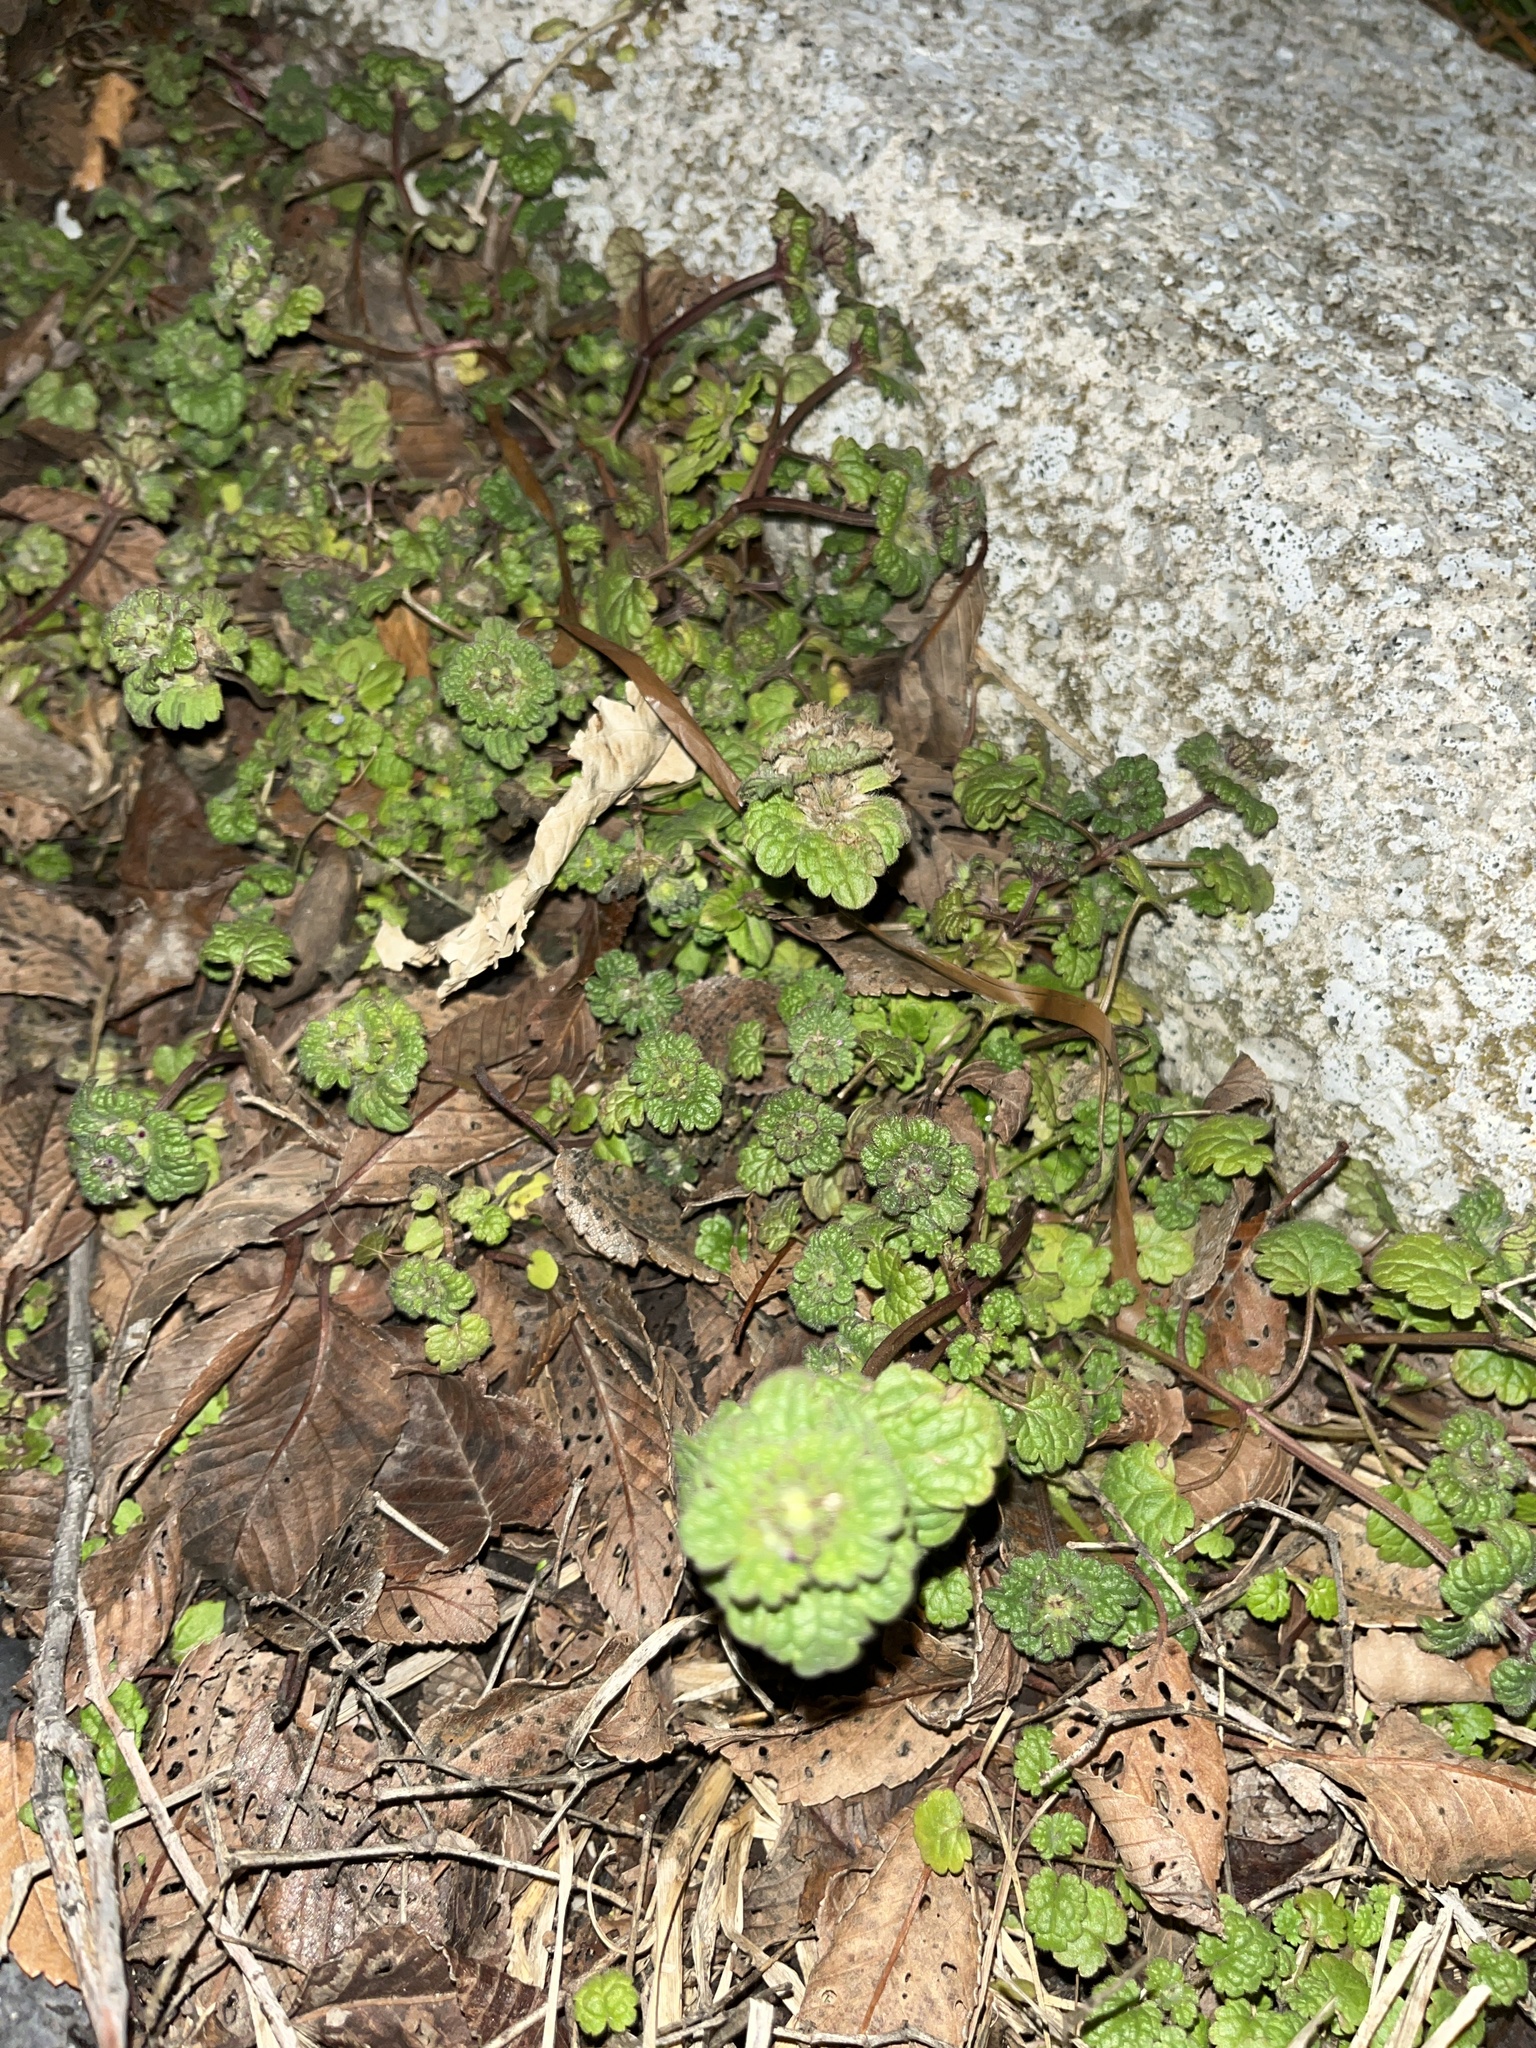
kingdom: Plantae
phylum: Tracheophyta
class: Magnoliopsida
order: Lamiales
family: Lamiaceae
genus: Lamium
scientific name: Lamium amplexicaule
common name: Henbit dead-nettle
